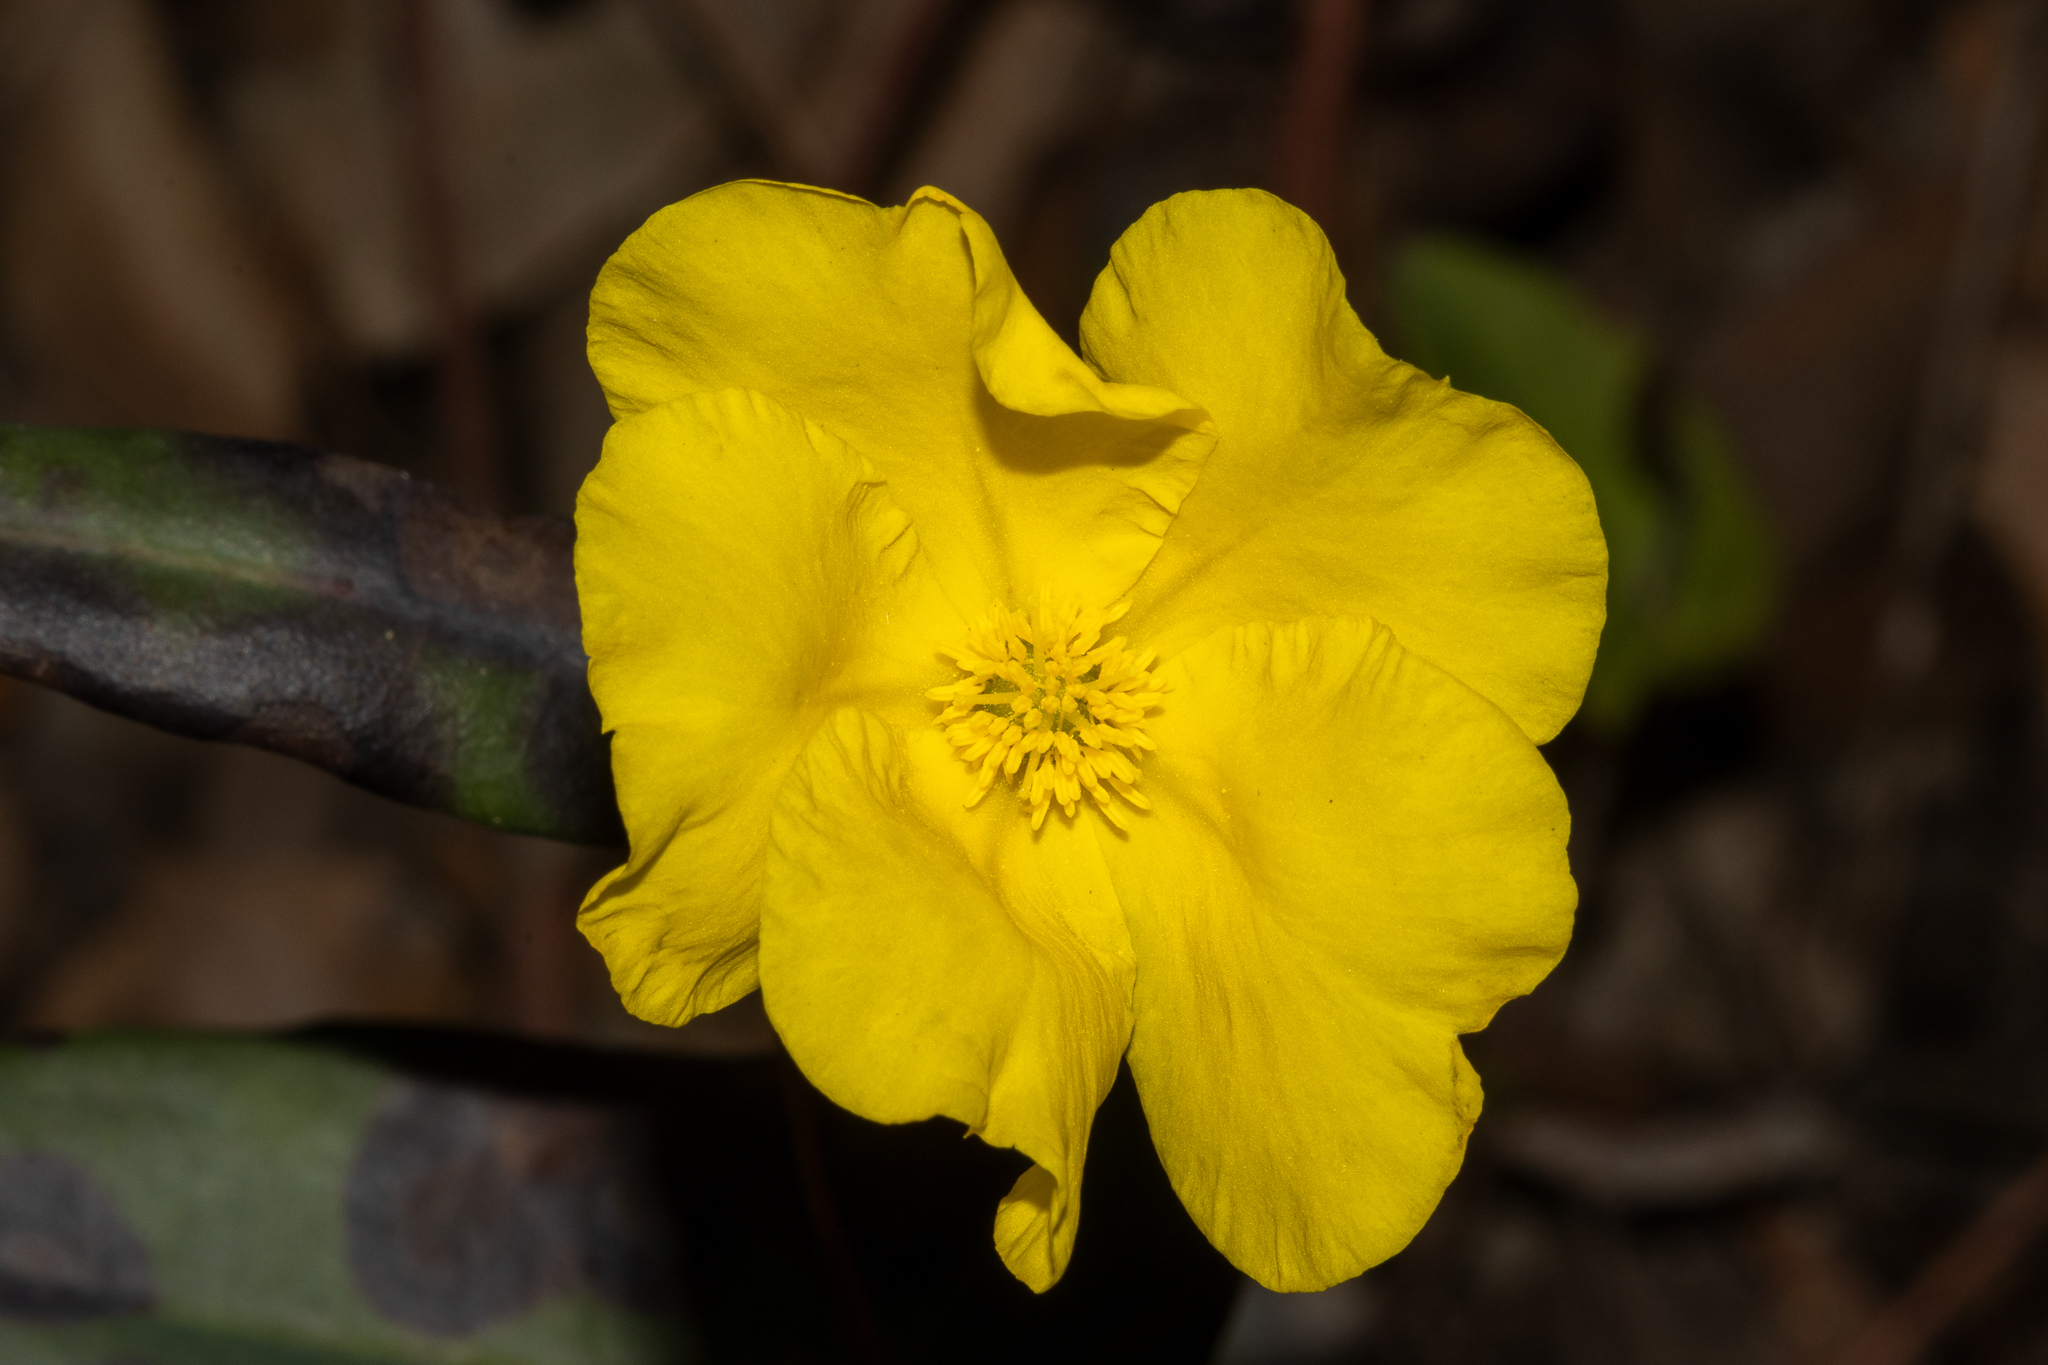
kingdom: Plantae
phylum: Tracheophyta
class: Magnoliopsida
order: Dilleniales
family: Dilleniaceae
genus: Hibbertia
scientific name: Hibbertia cunninghamii
